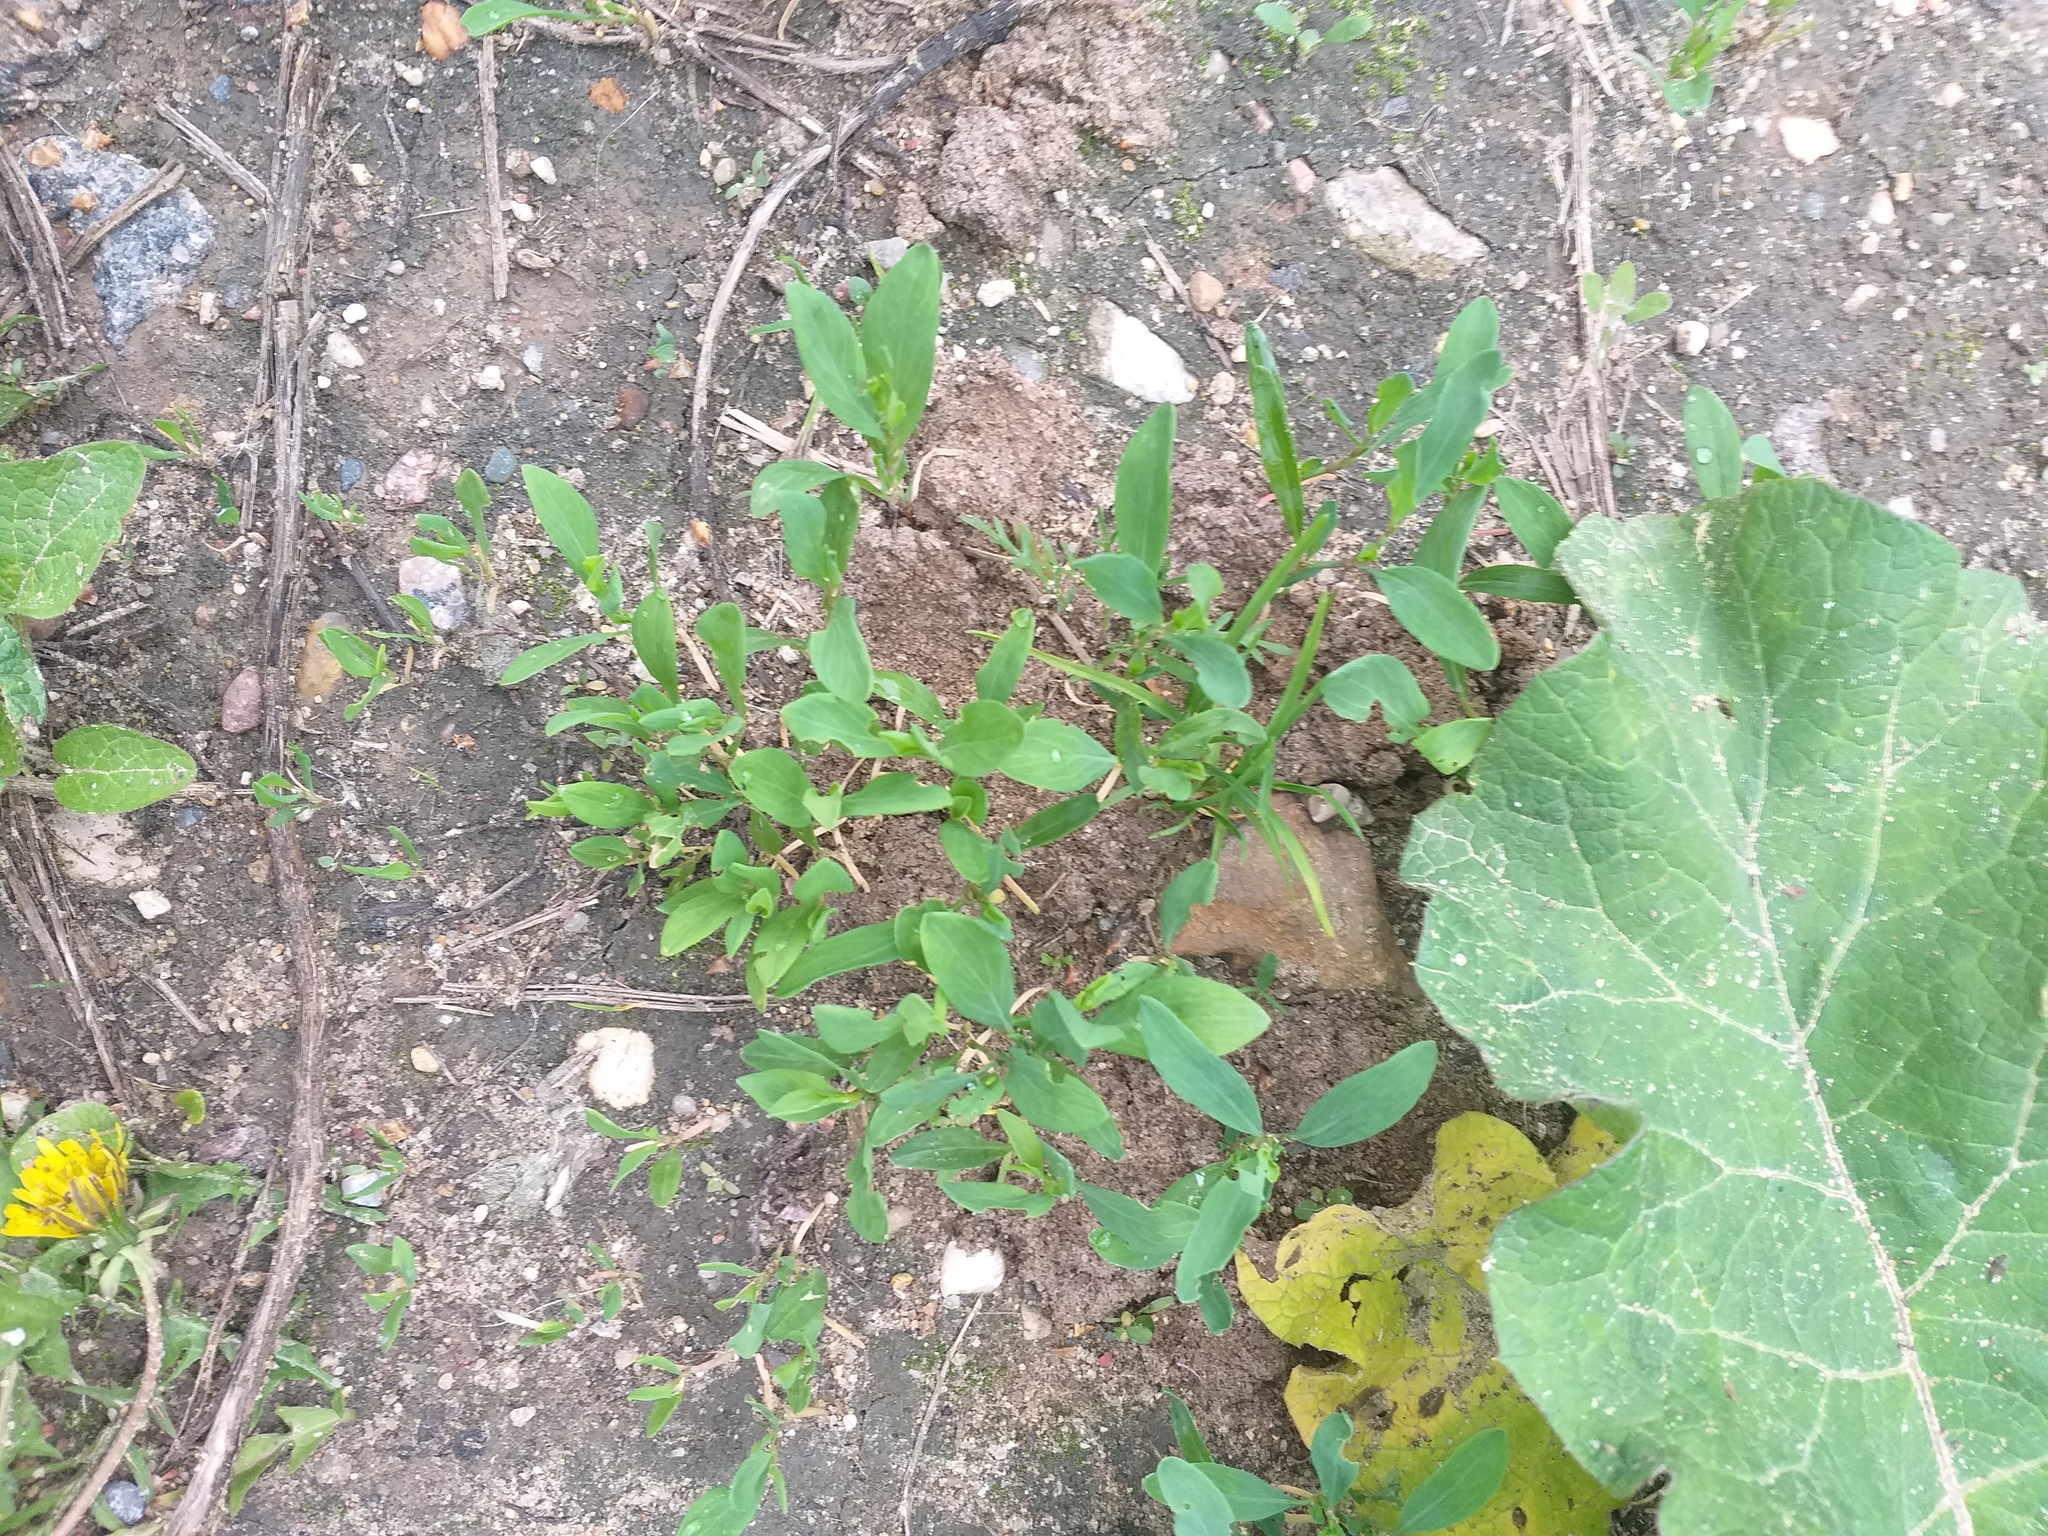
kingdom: Plantae
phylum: Tracheophyta
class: Magnoliopsida
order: Caryophyllales
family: Polygonaceae
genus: Polygonum
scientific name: Polygonum
